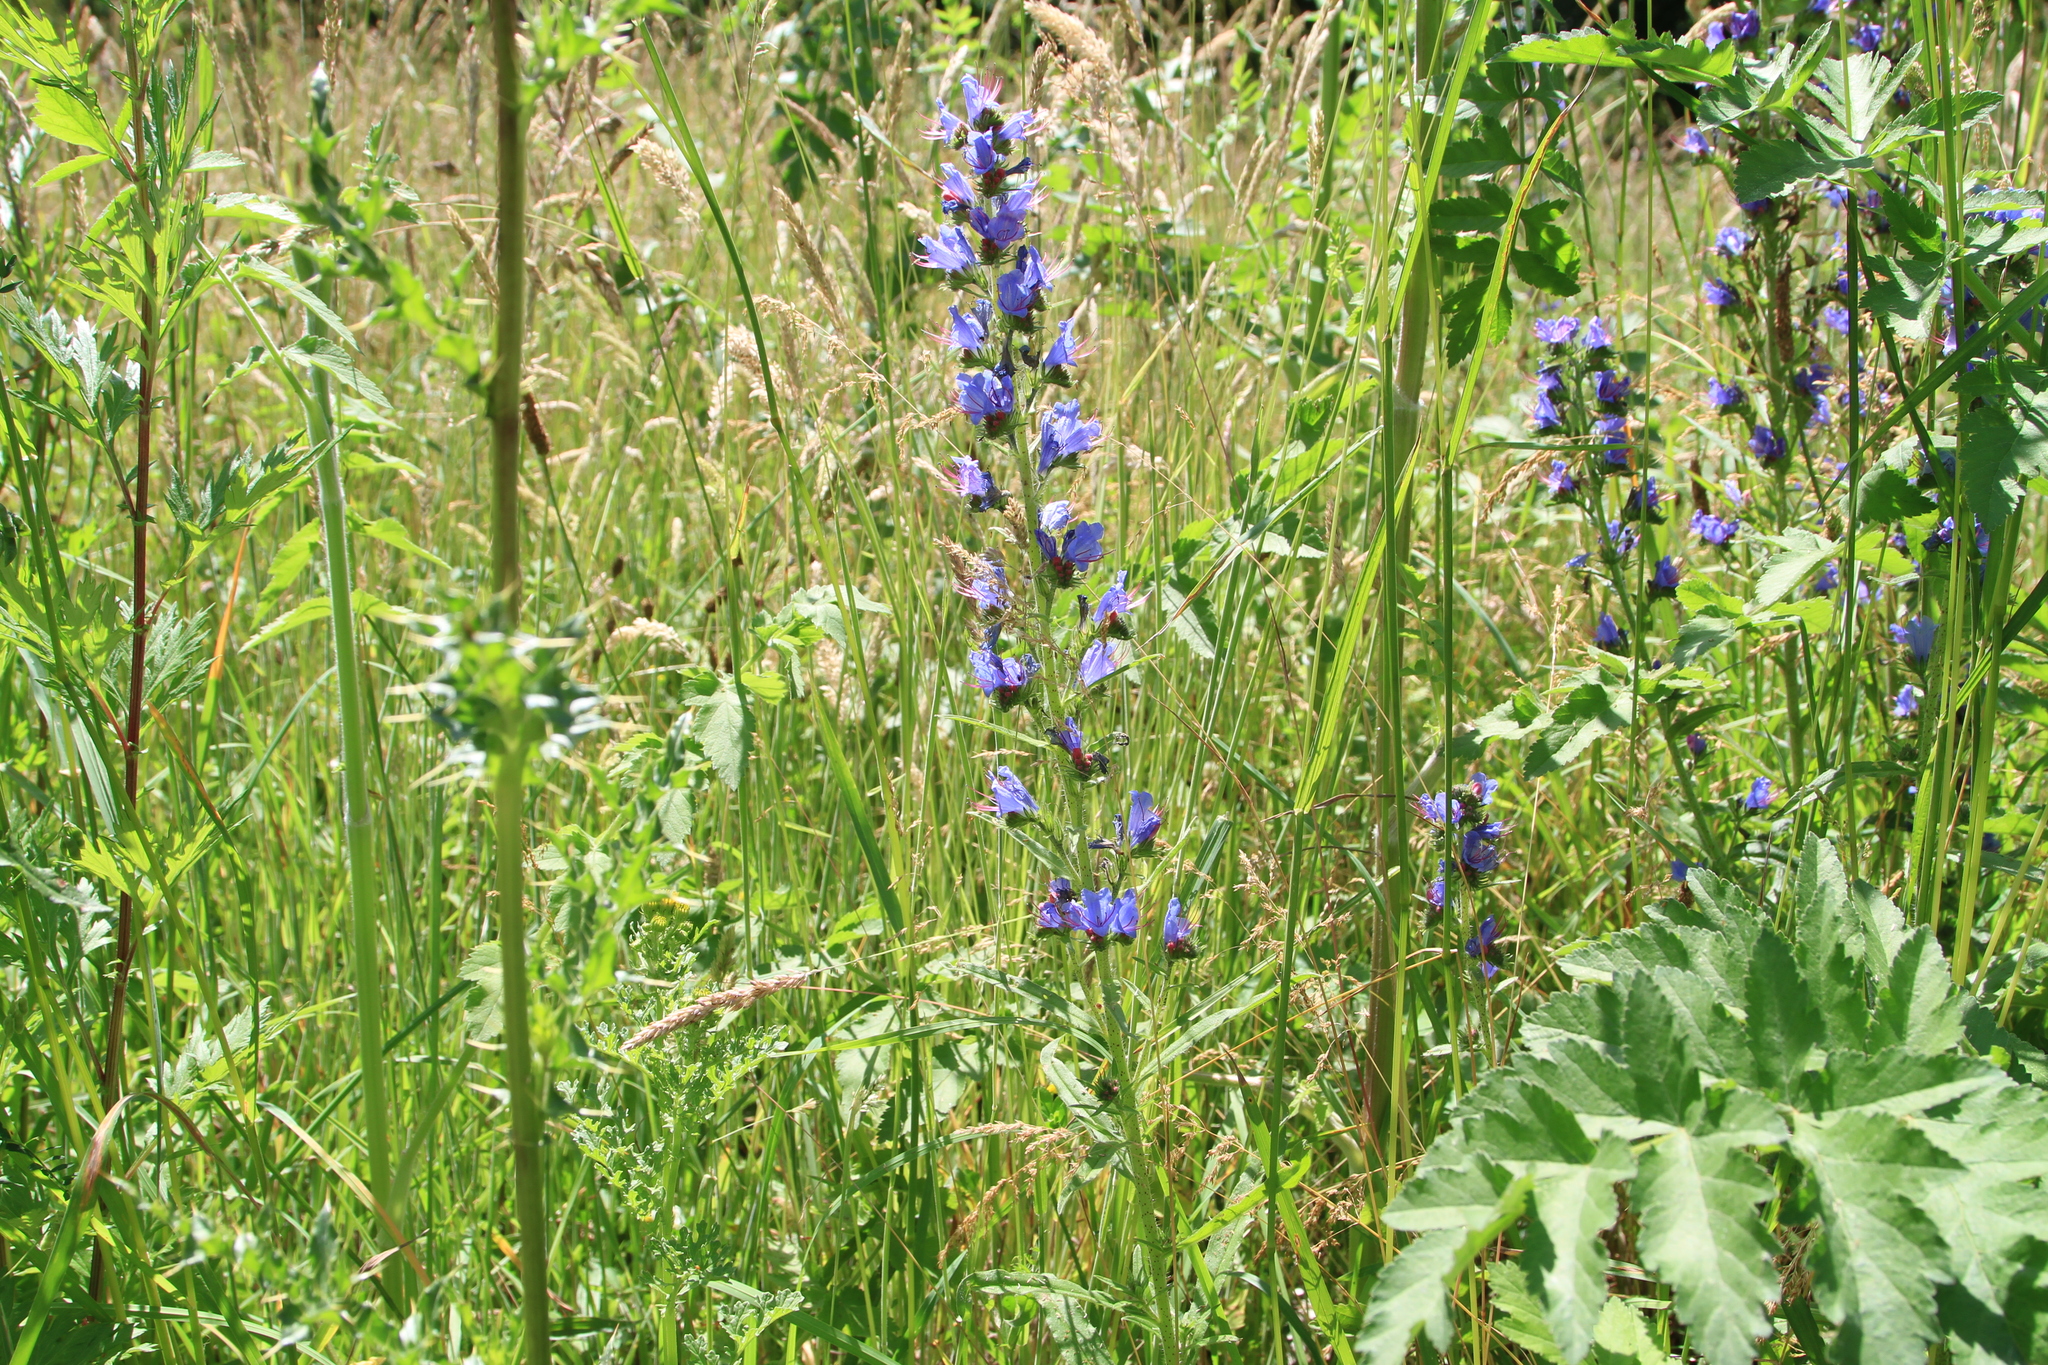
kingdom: Plantae
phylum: Tracheophyta
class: Magnoliopsida
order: Boraginales
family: Boraginaceae
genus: Echium
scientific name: Echium vulgare
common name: Common viper's bugloss
